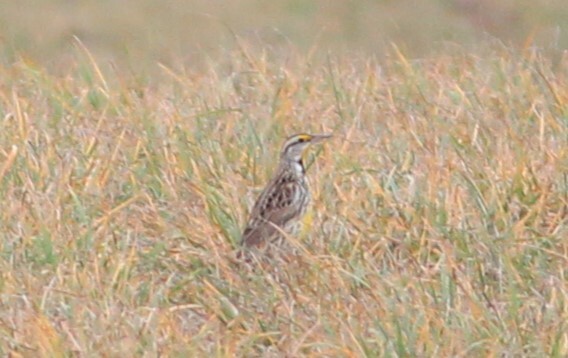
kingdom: Animalia
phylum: Chordata
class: Aves
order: Passeriformes
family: Icteridae
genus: Sturnella
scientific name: Sturnella magna
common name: Eastern meadowlark
